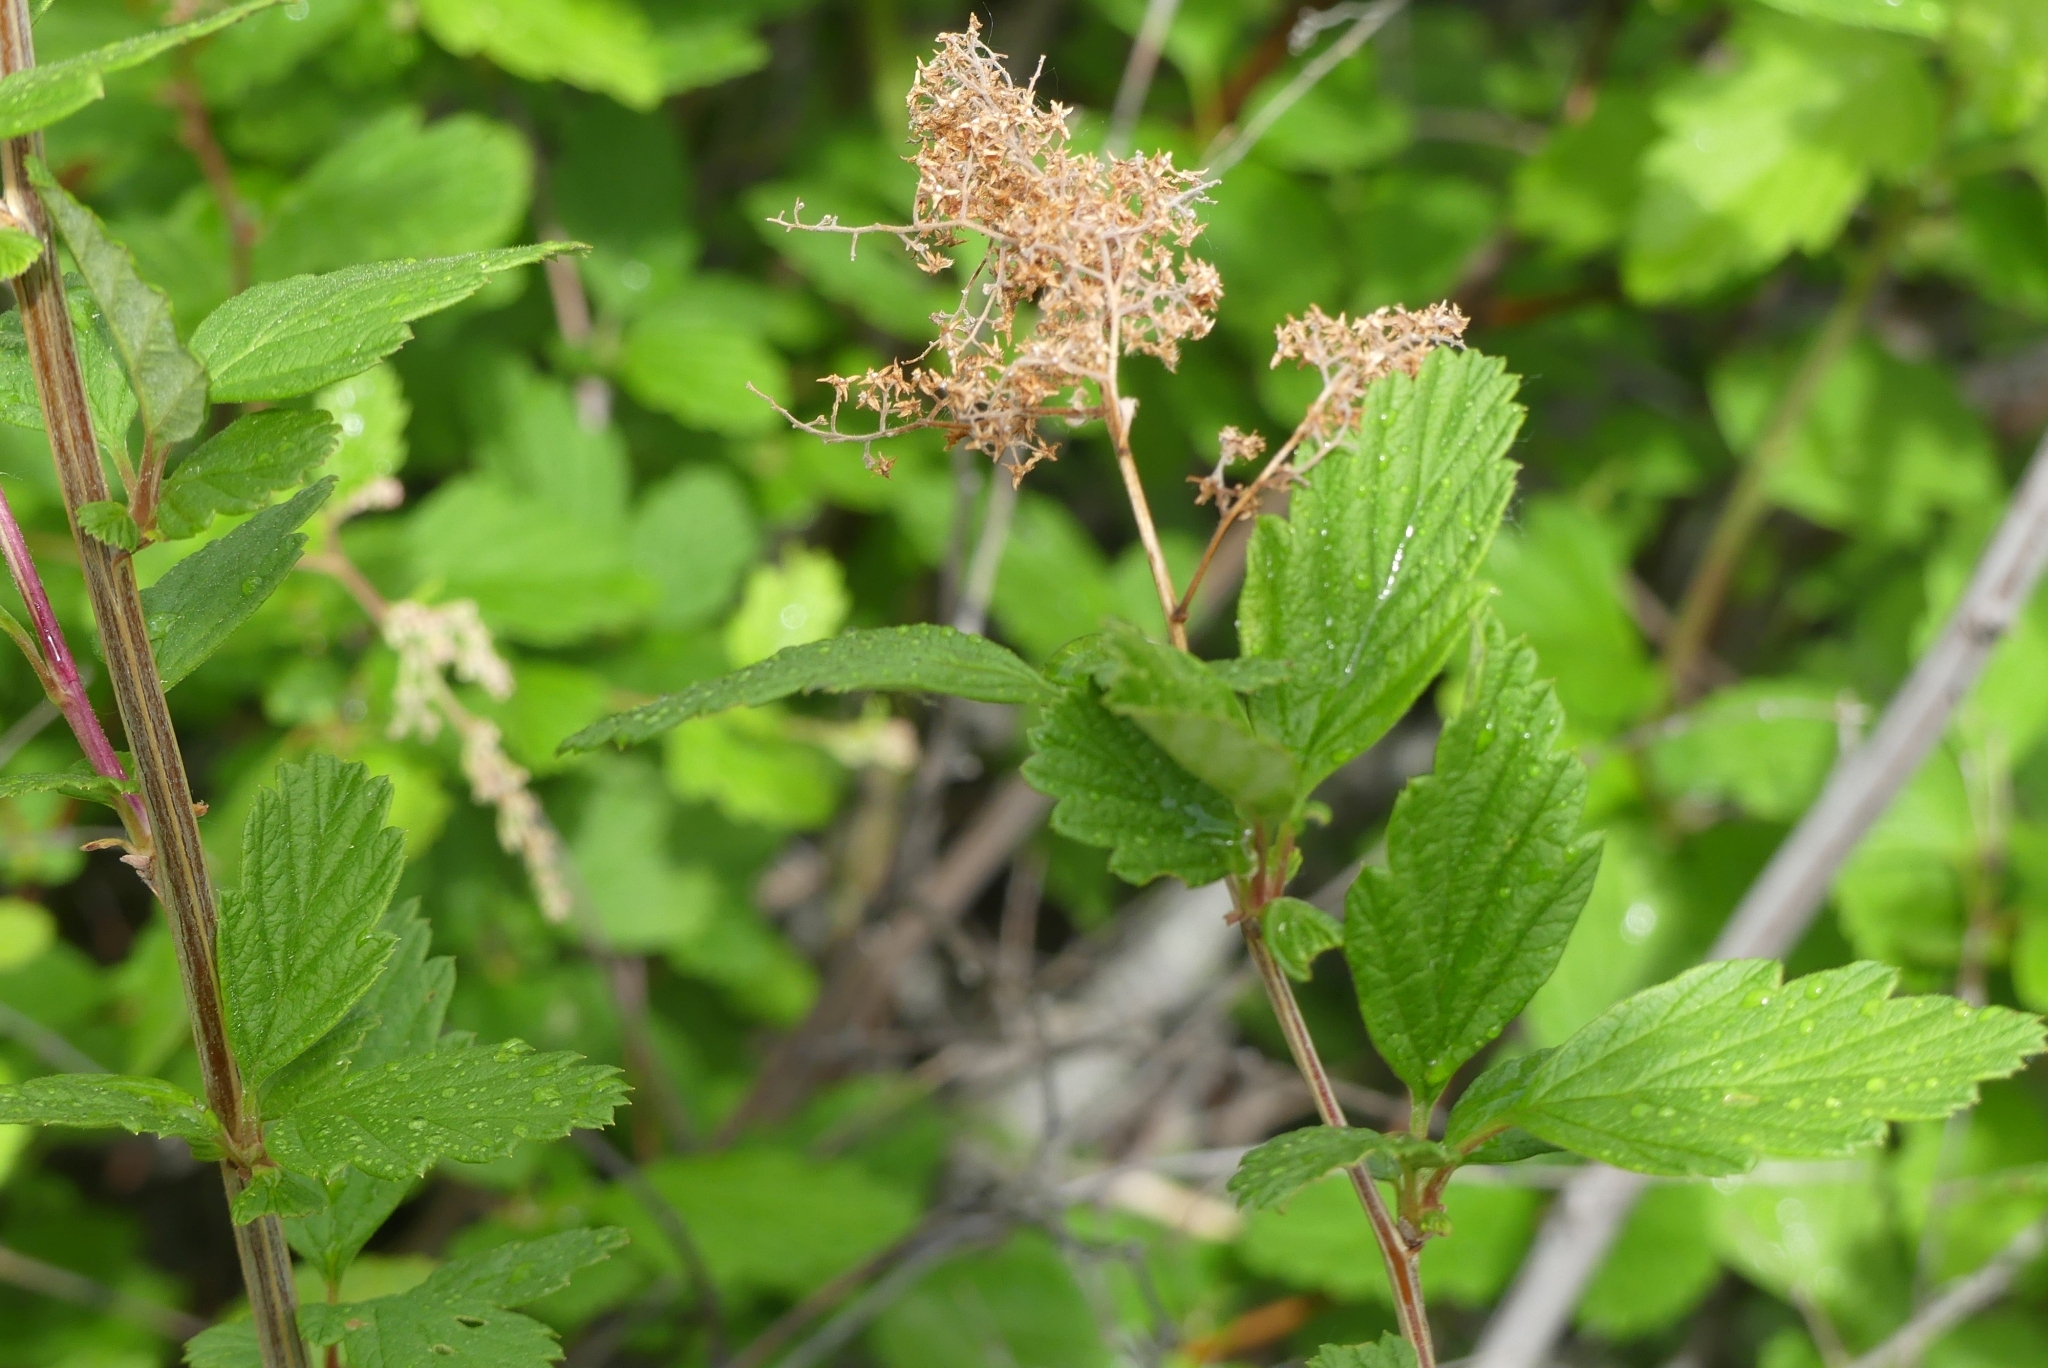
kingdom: Plantae
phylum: Tracheophyta
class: Magnoliopsida
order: Rosales
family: Rosaceae
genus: Holodiscus
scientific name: Holodiscus discolor
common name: Oceanspray
